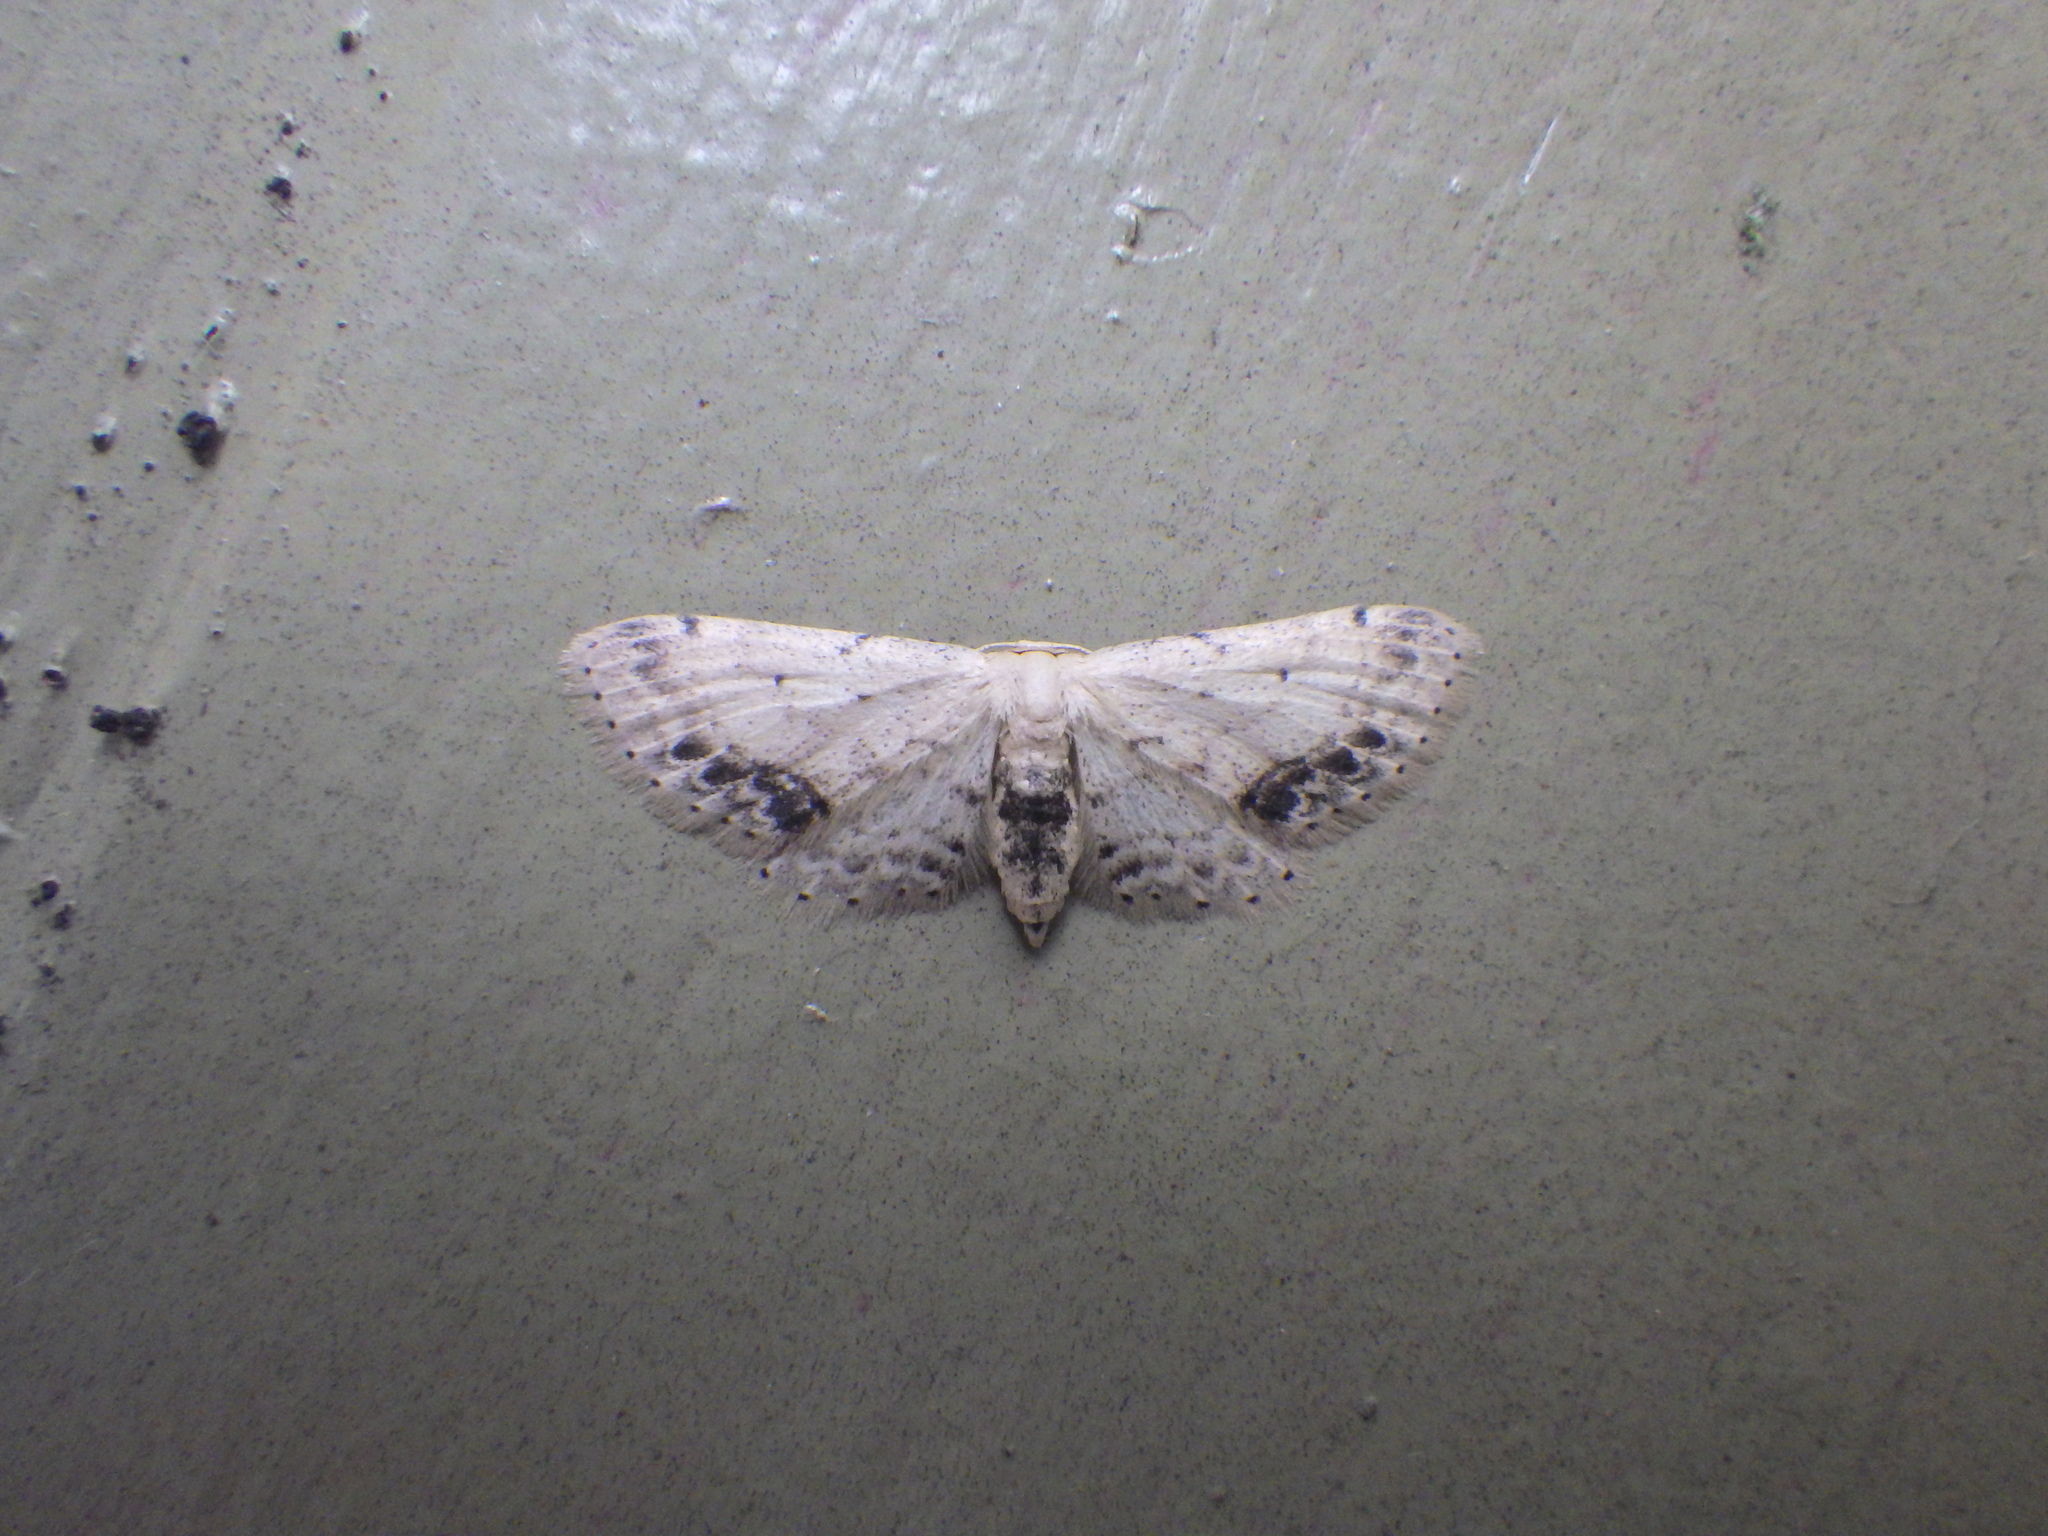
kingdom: Animalia
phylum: Arthropoda
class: Insecta
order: Lepidoptera
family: Geometridae
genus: Idaea
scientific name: Idaea dimidiata
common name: Single-dotted wave
